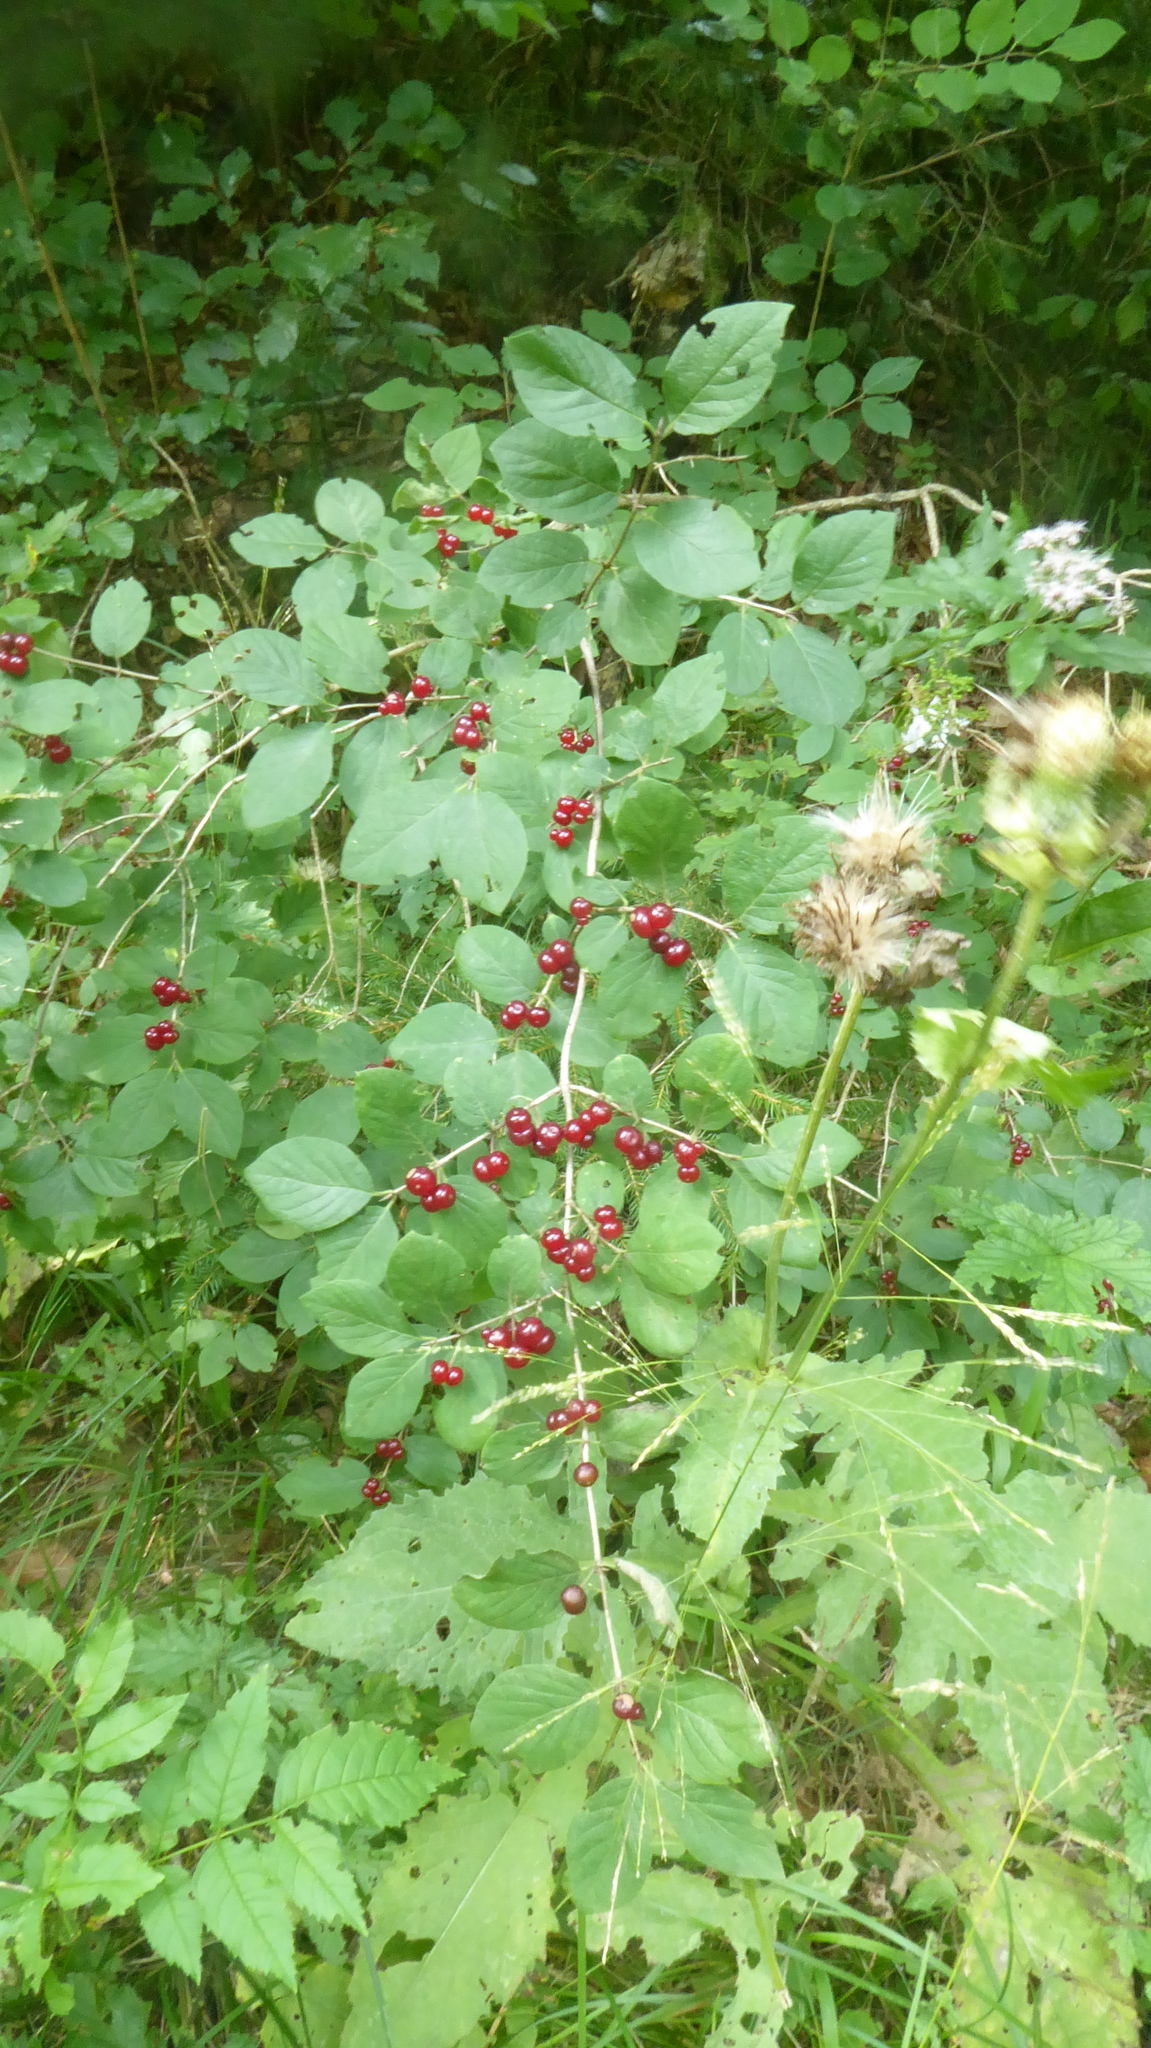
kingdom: Plantae
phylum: Tracheophyta
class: Magnoliopsida
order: Dipsacales
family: Caprifoliaceae
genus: Lonicera
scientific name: Lonicera xylosteum
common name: Fly honeysuckle
